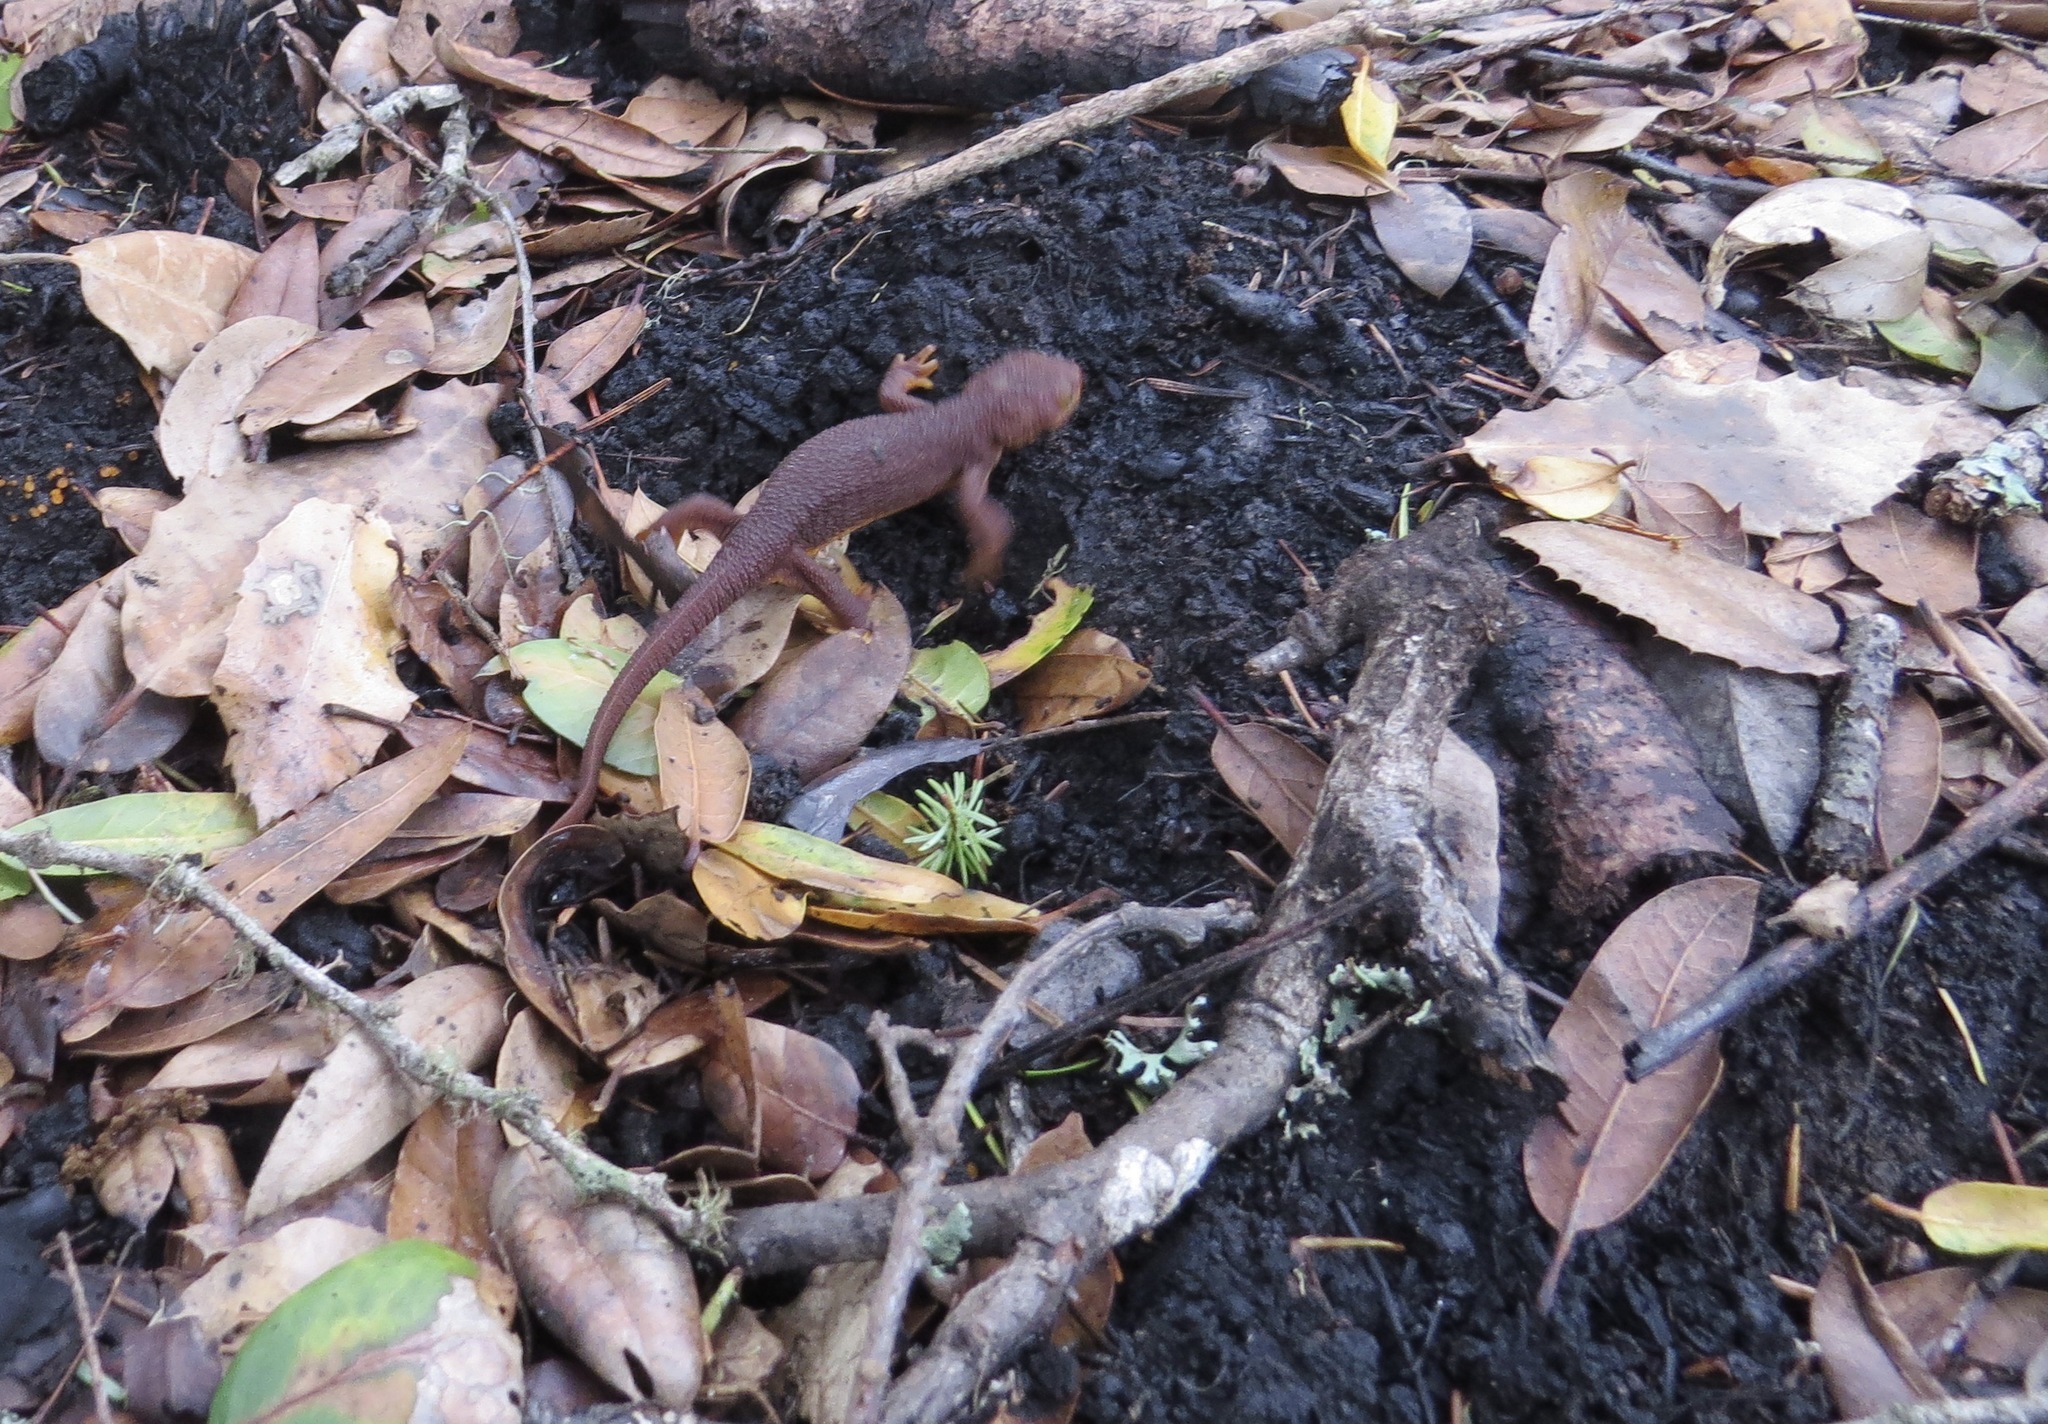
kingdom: Animalia
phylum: Chordata
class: Amphibia
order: Caudata
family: Salamandridae
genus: Taricha
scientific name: Taricha torosa
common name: California newt
